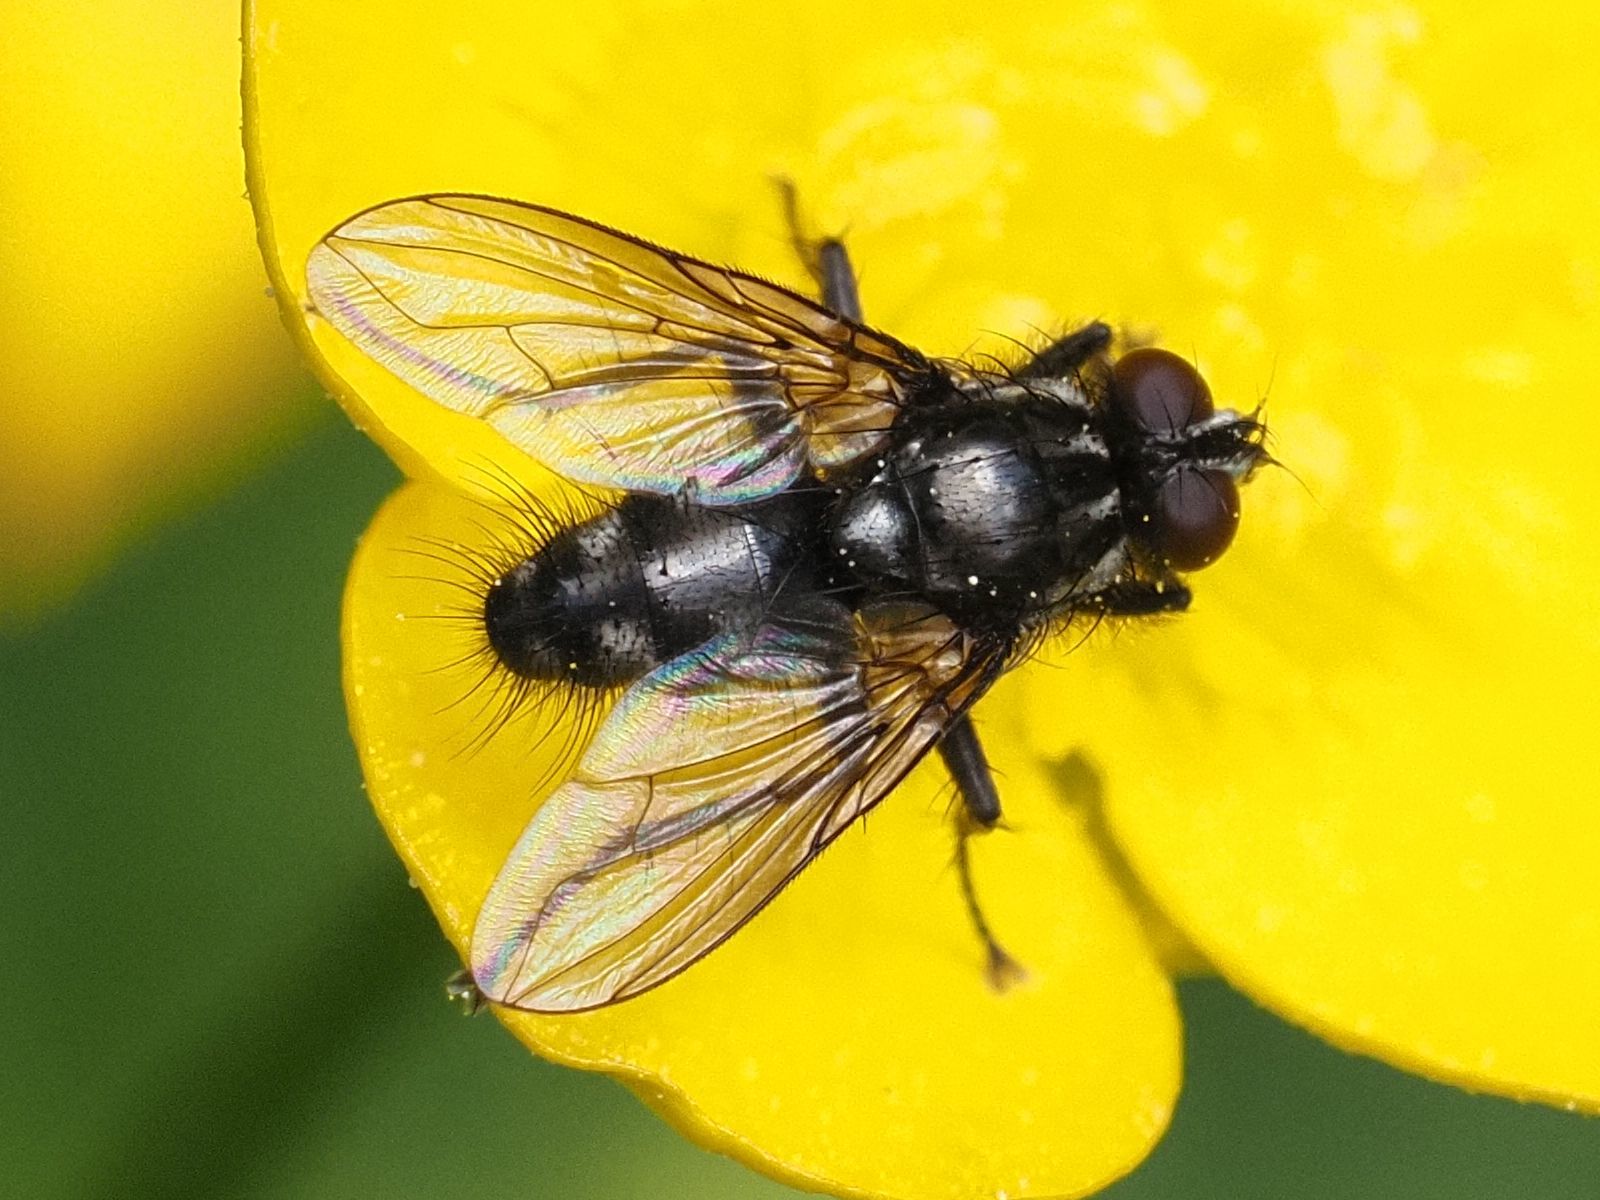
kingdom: Animalia
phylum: Arthropoda
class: Insecta
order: Diptera
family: Calliphoridae
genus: Rhinomorinia
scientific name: Rhinomorinia sarcophagina
